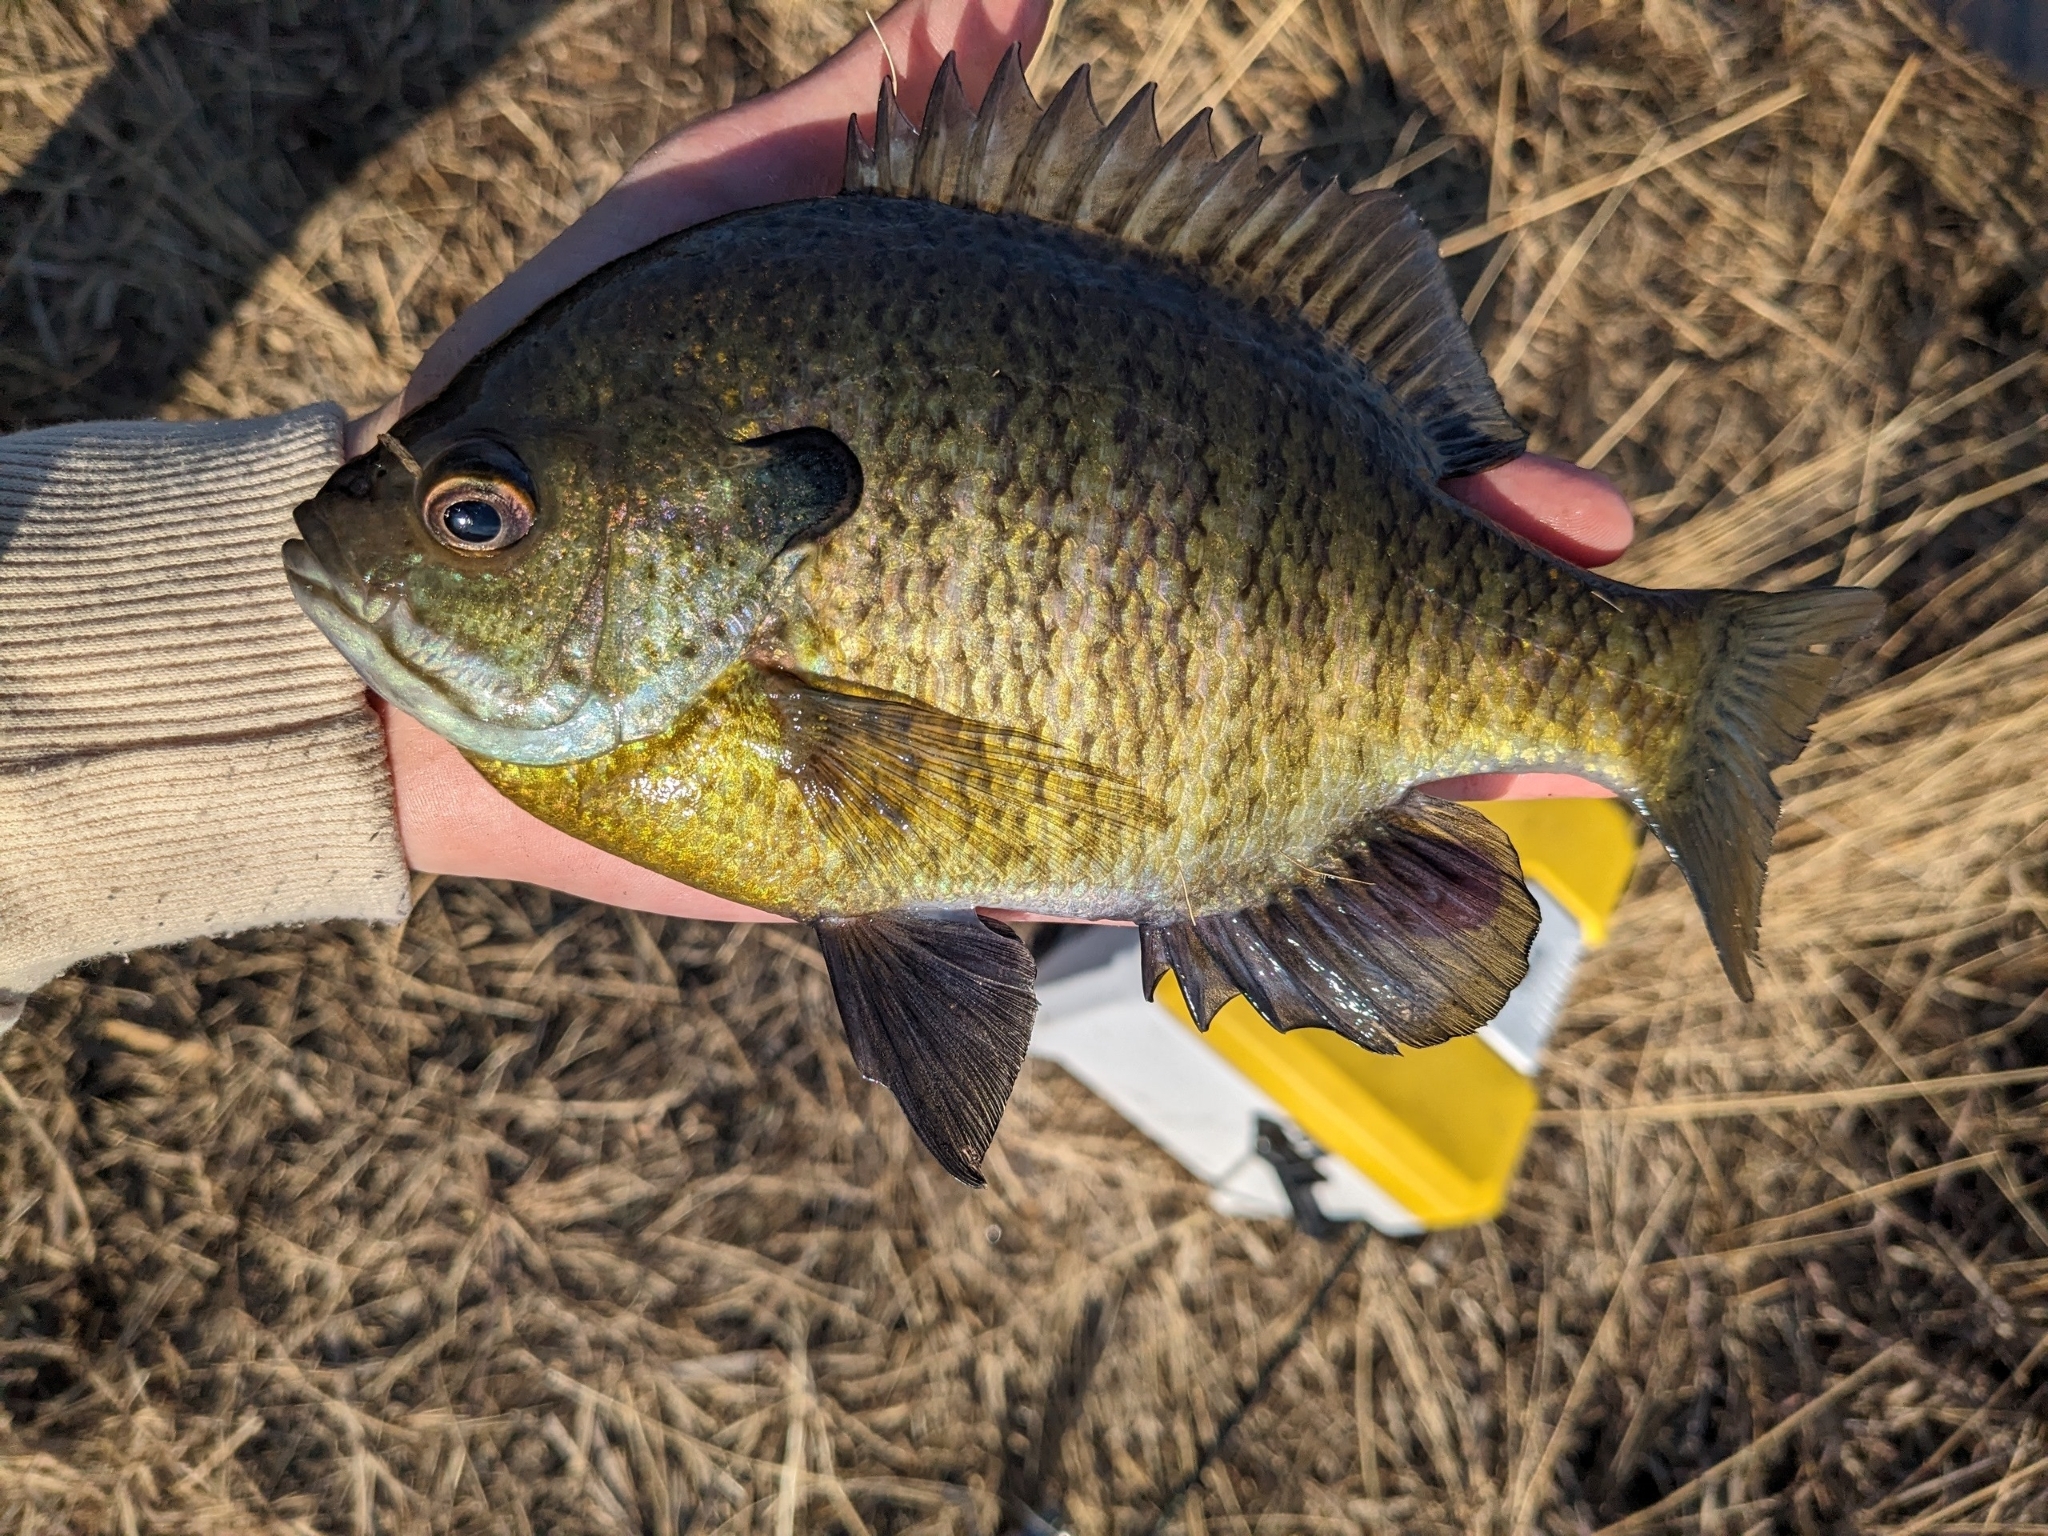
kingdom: Animalia
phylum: Chordata
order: Perciformes
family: Centrarchidae
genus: Lepomis
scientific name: Lepomis macrochirus
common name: Bluegill
